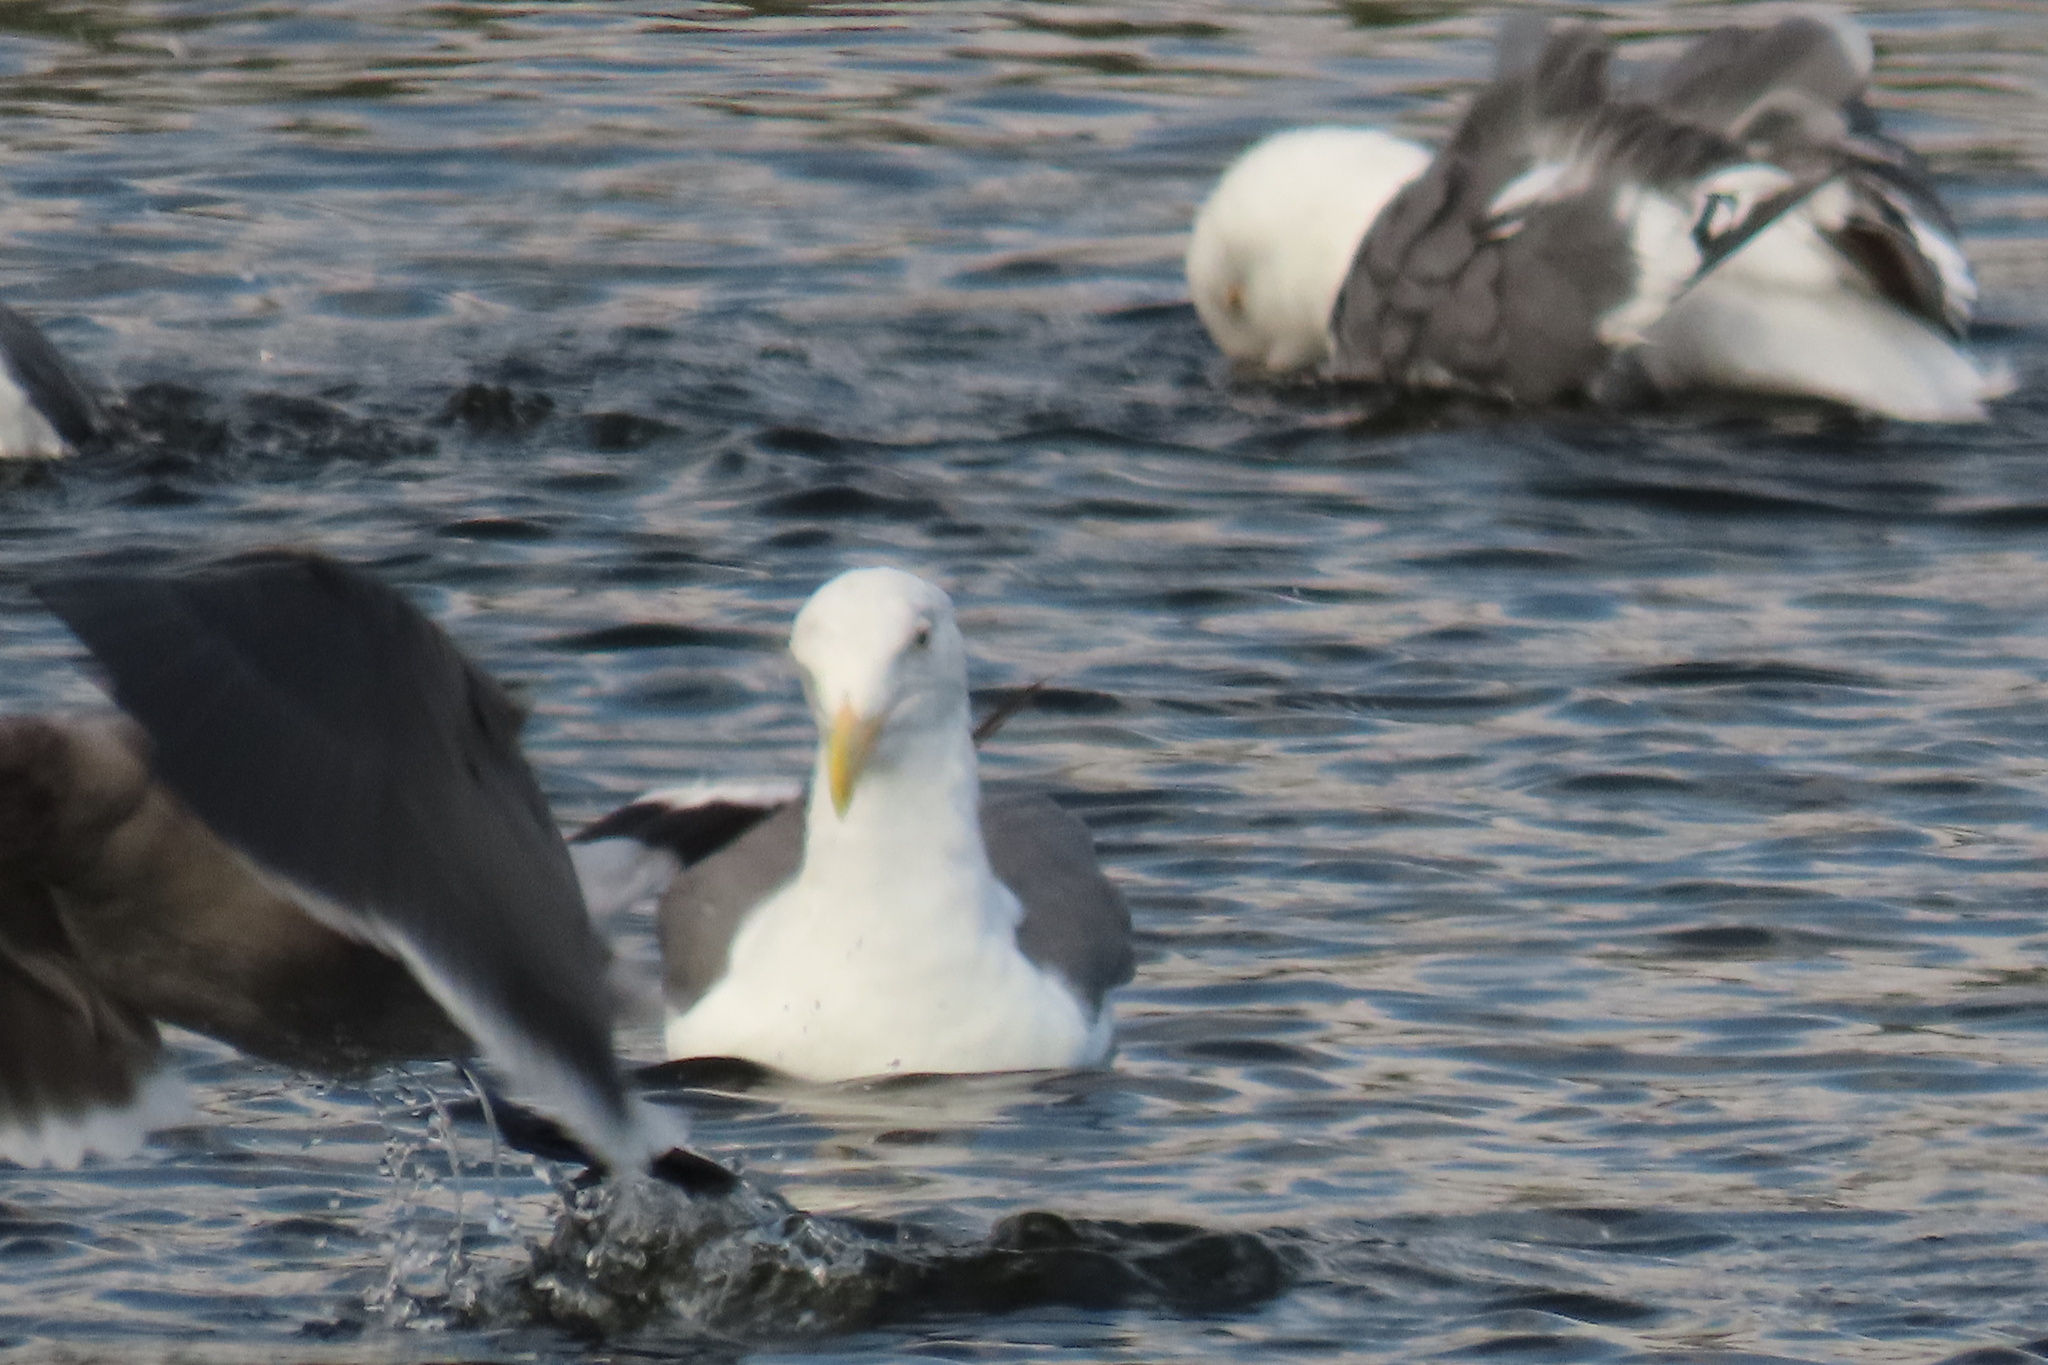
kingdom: Animalia
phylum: Chordata
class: Aves
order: Charadriiformes
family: Laridae
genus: Larus
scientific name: Larus occidentalis
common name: Western gull
